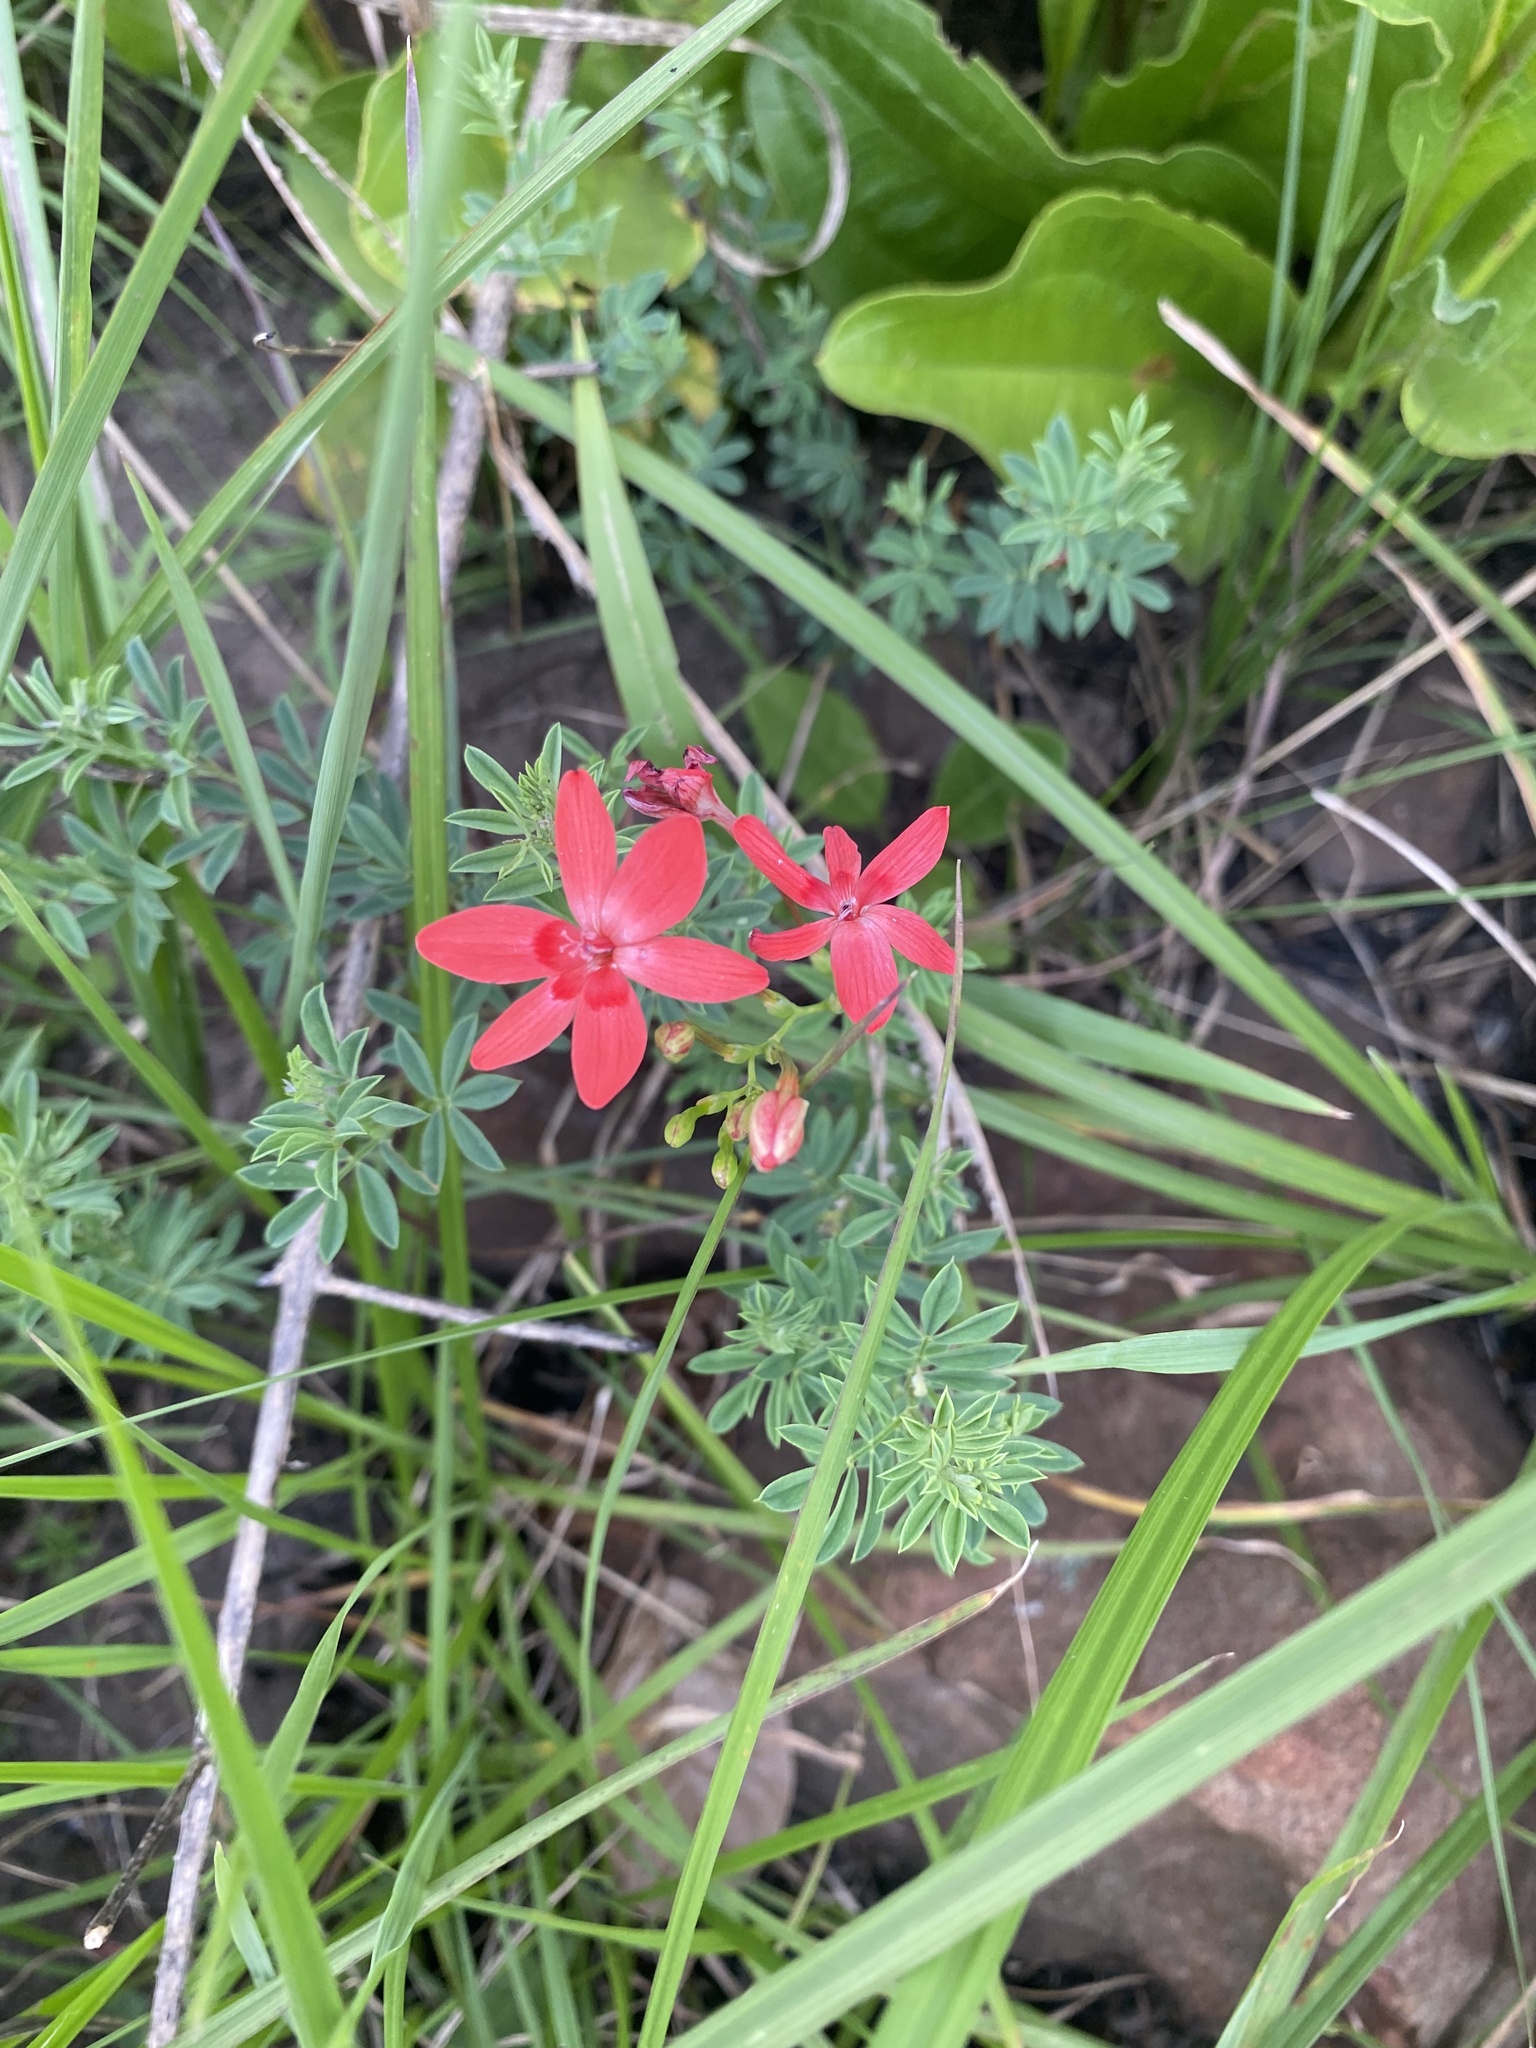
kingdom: Plantae
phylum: Tracheophyta
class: Liliopsida
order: Asparagales
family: Iridaceae
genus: Freesia
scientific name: Freesia laxa
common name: False freesia
